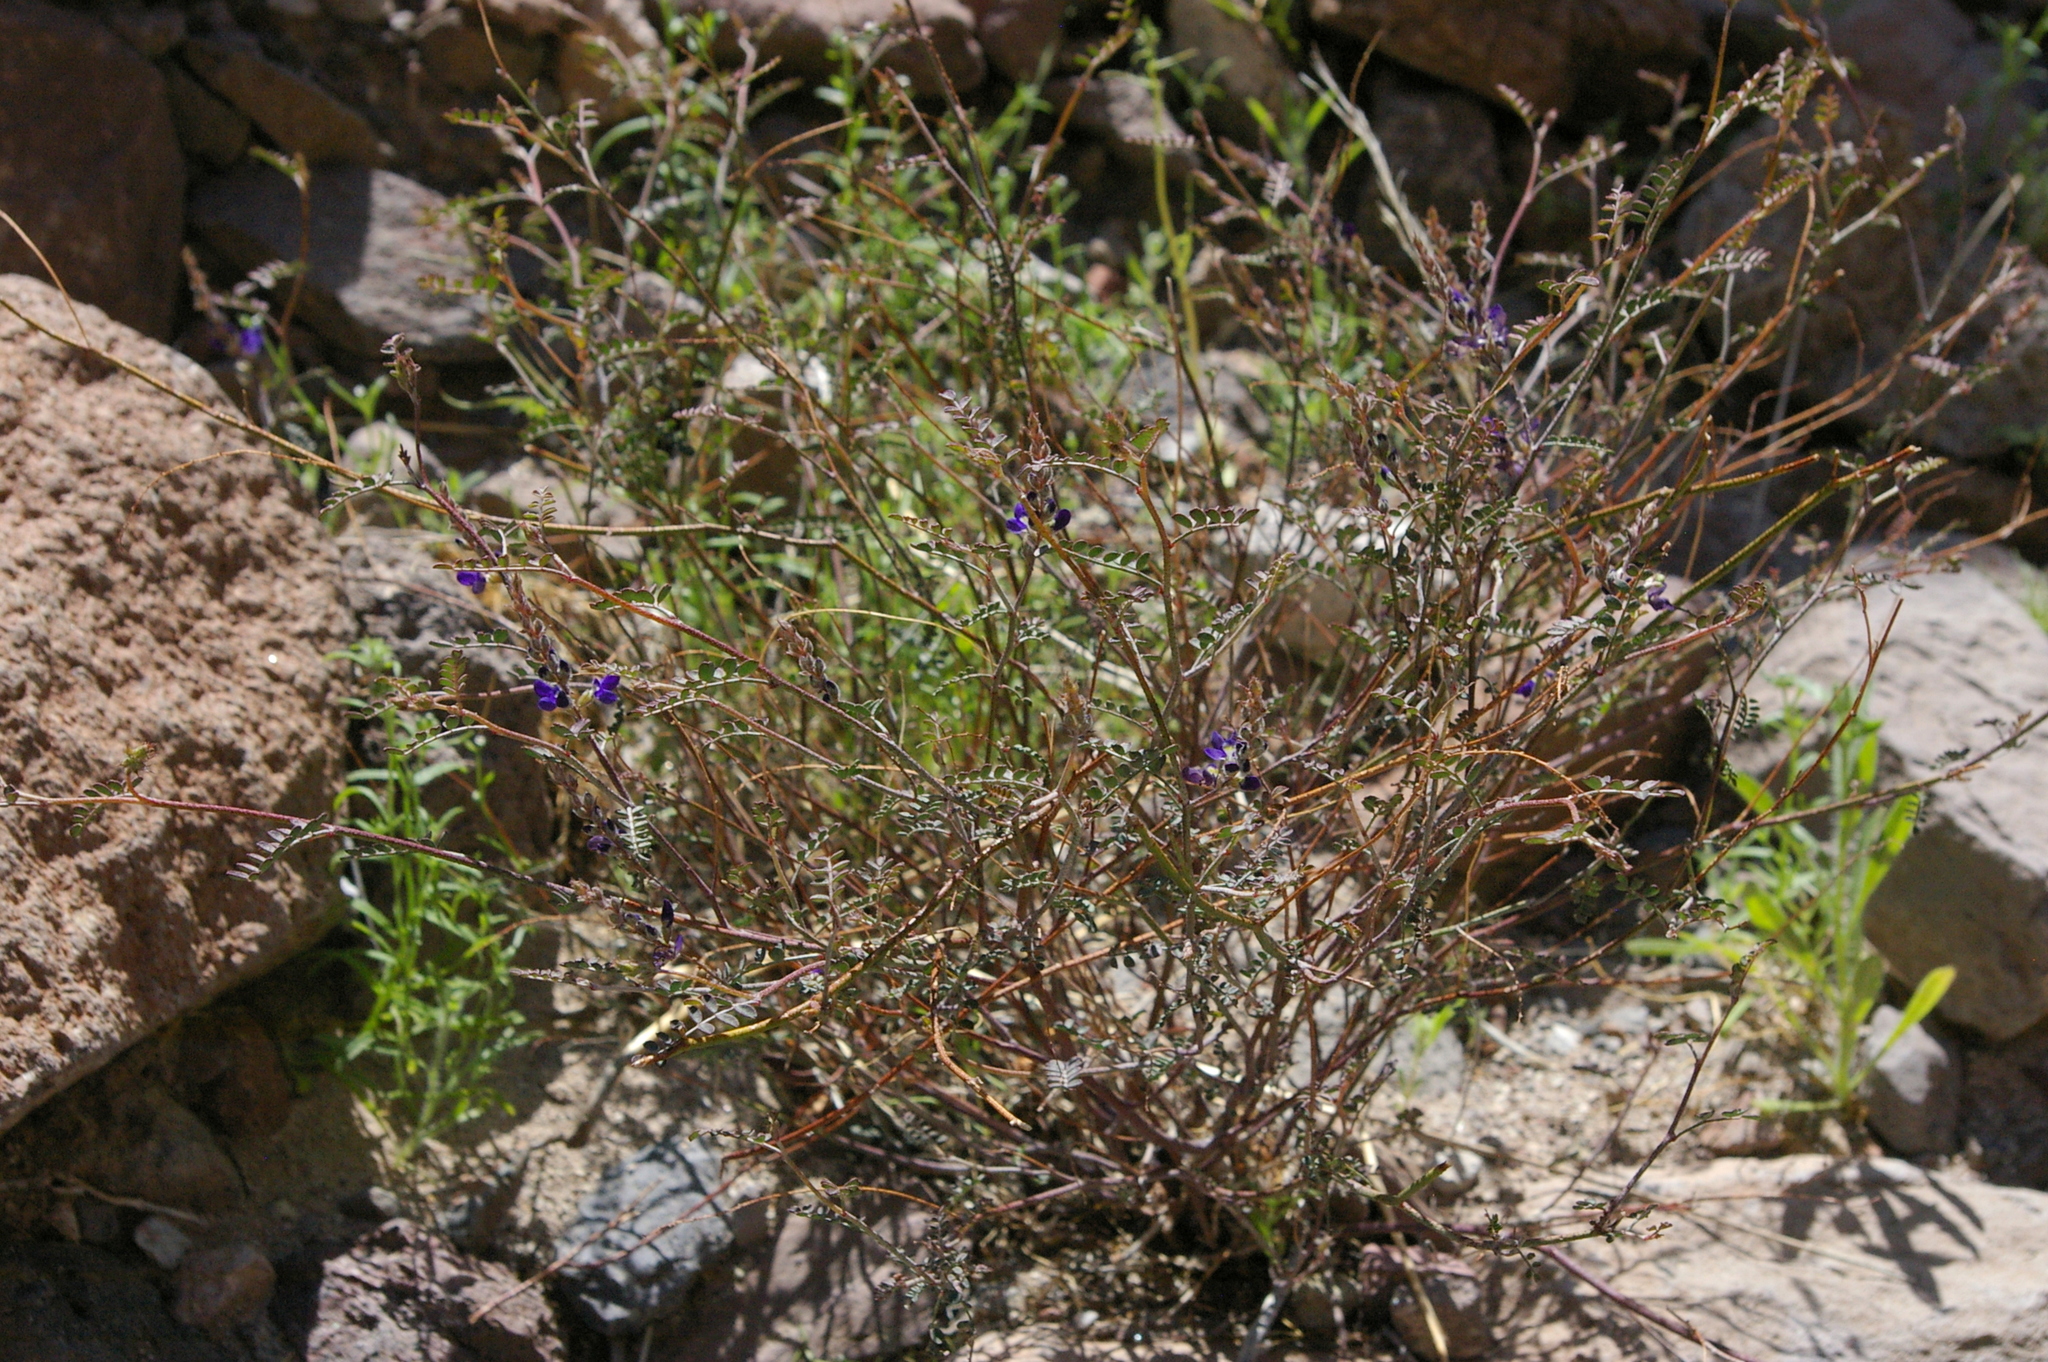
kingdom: Plantae
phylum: Tracheophyta
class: Magnoliopsida
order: Fabales
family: Fabaceae
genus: Marina
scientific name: Marina parryi
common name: Parry's marina
